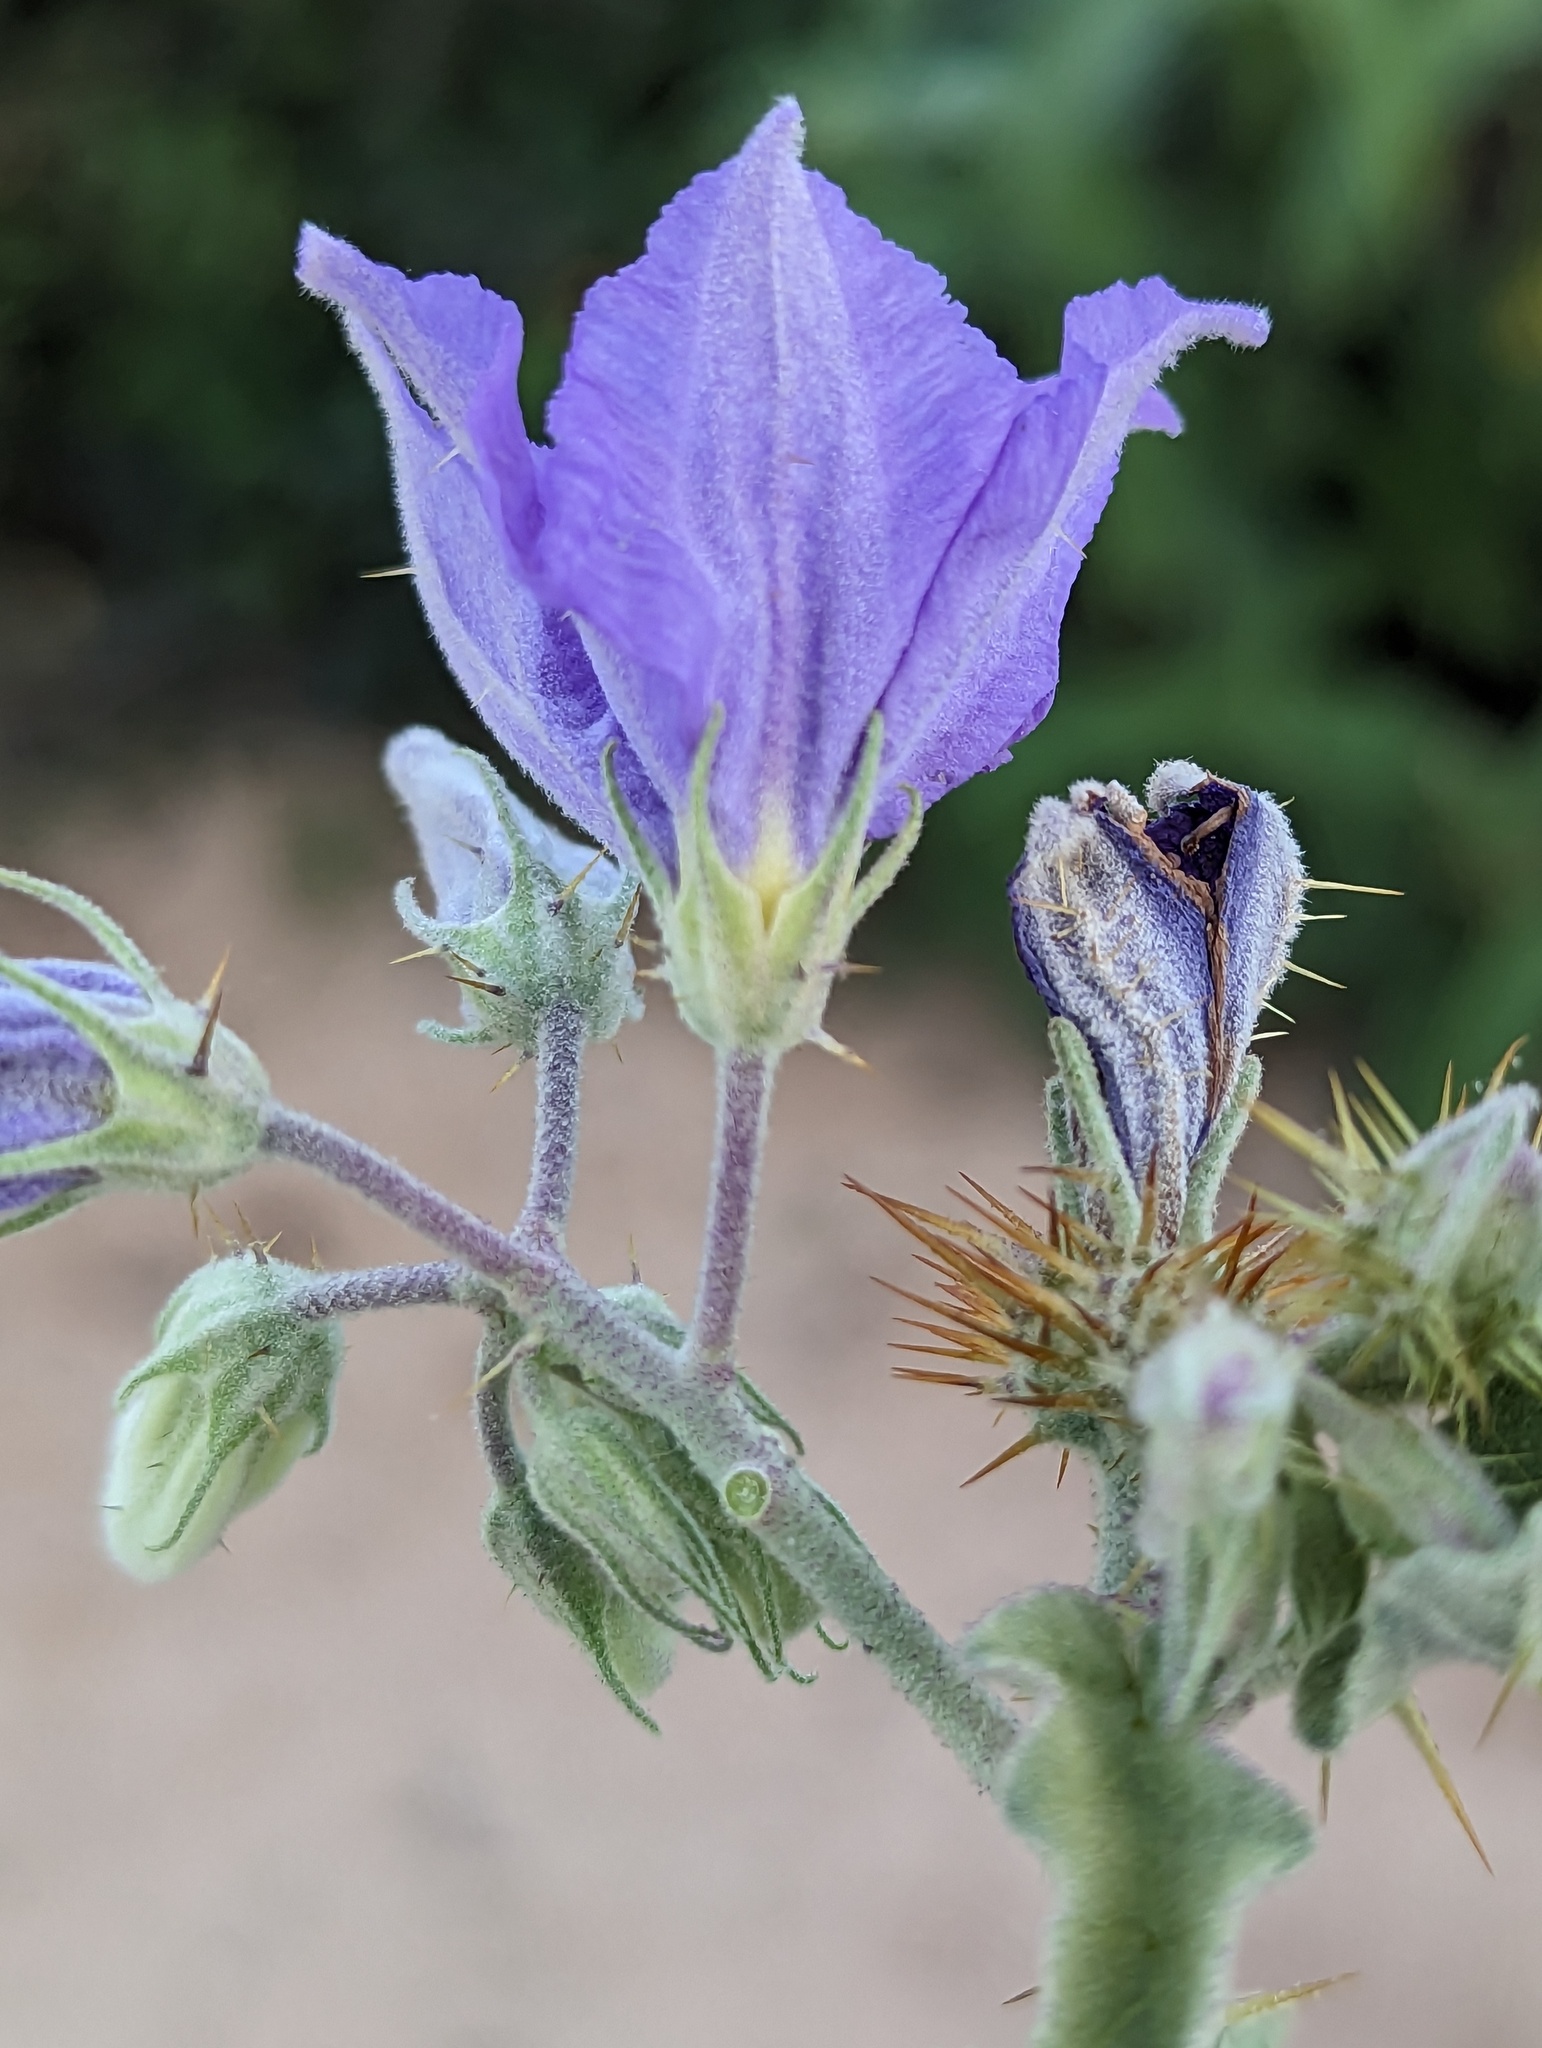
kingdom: Plantae
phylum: Tracheophyta
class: Magnoliopsida
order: Solanales
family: Solanaceae
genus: Solanum
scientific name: Solanum houstonii
